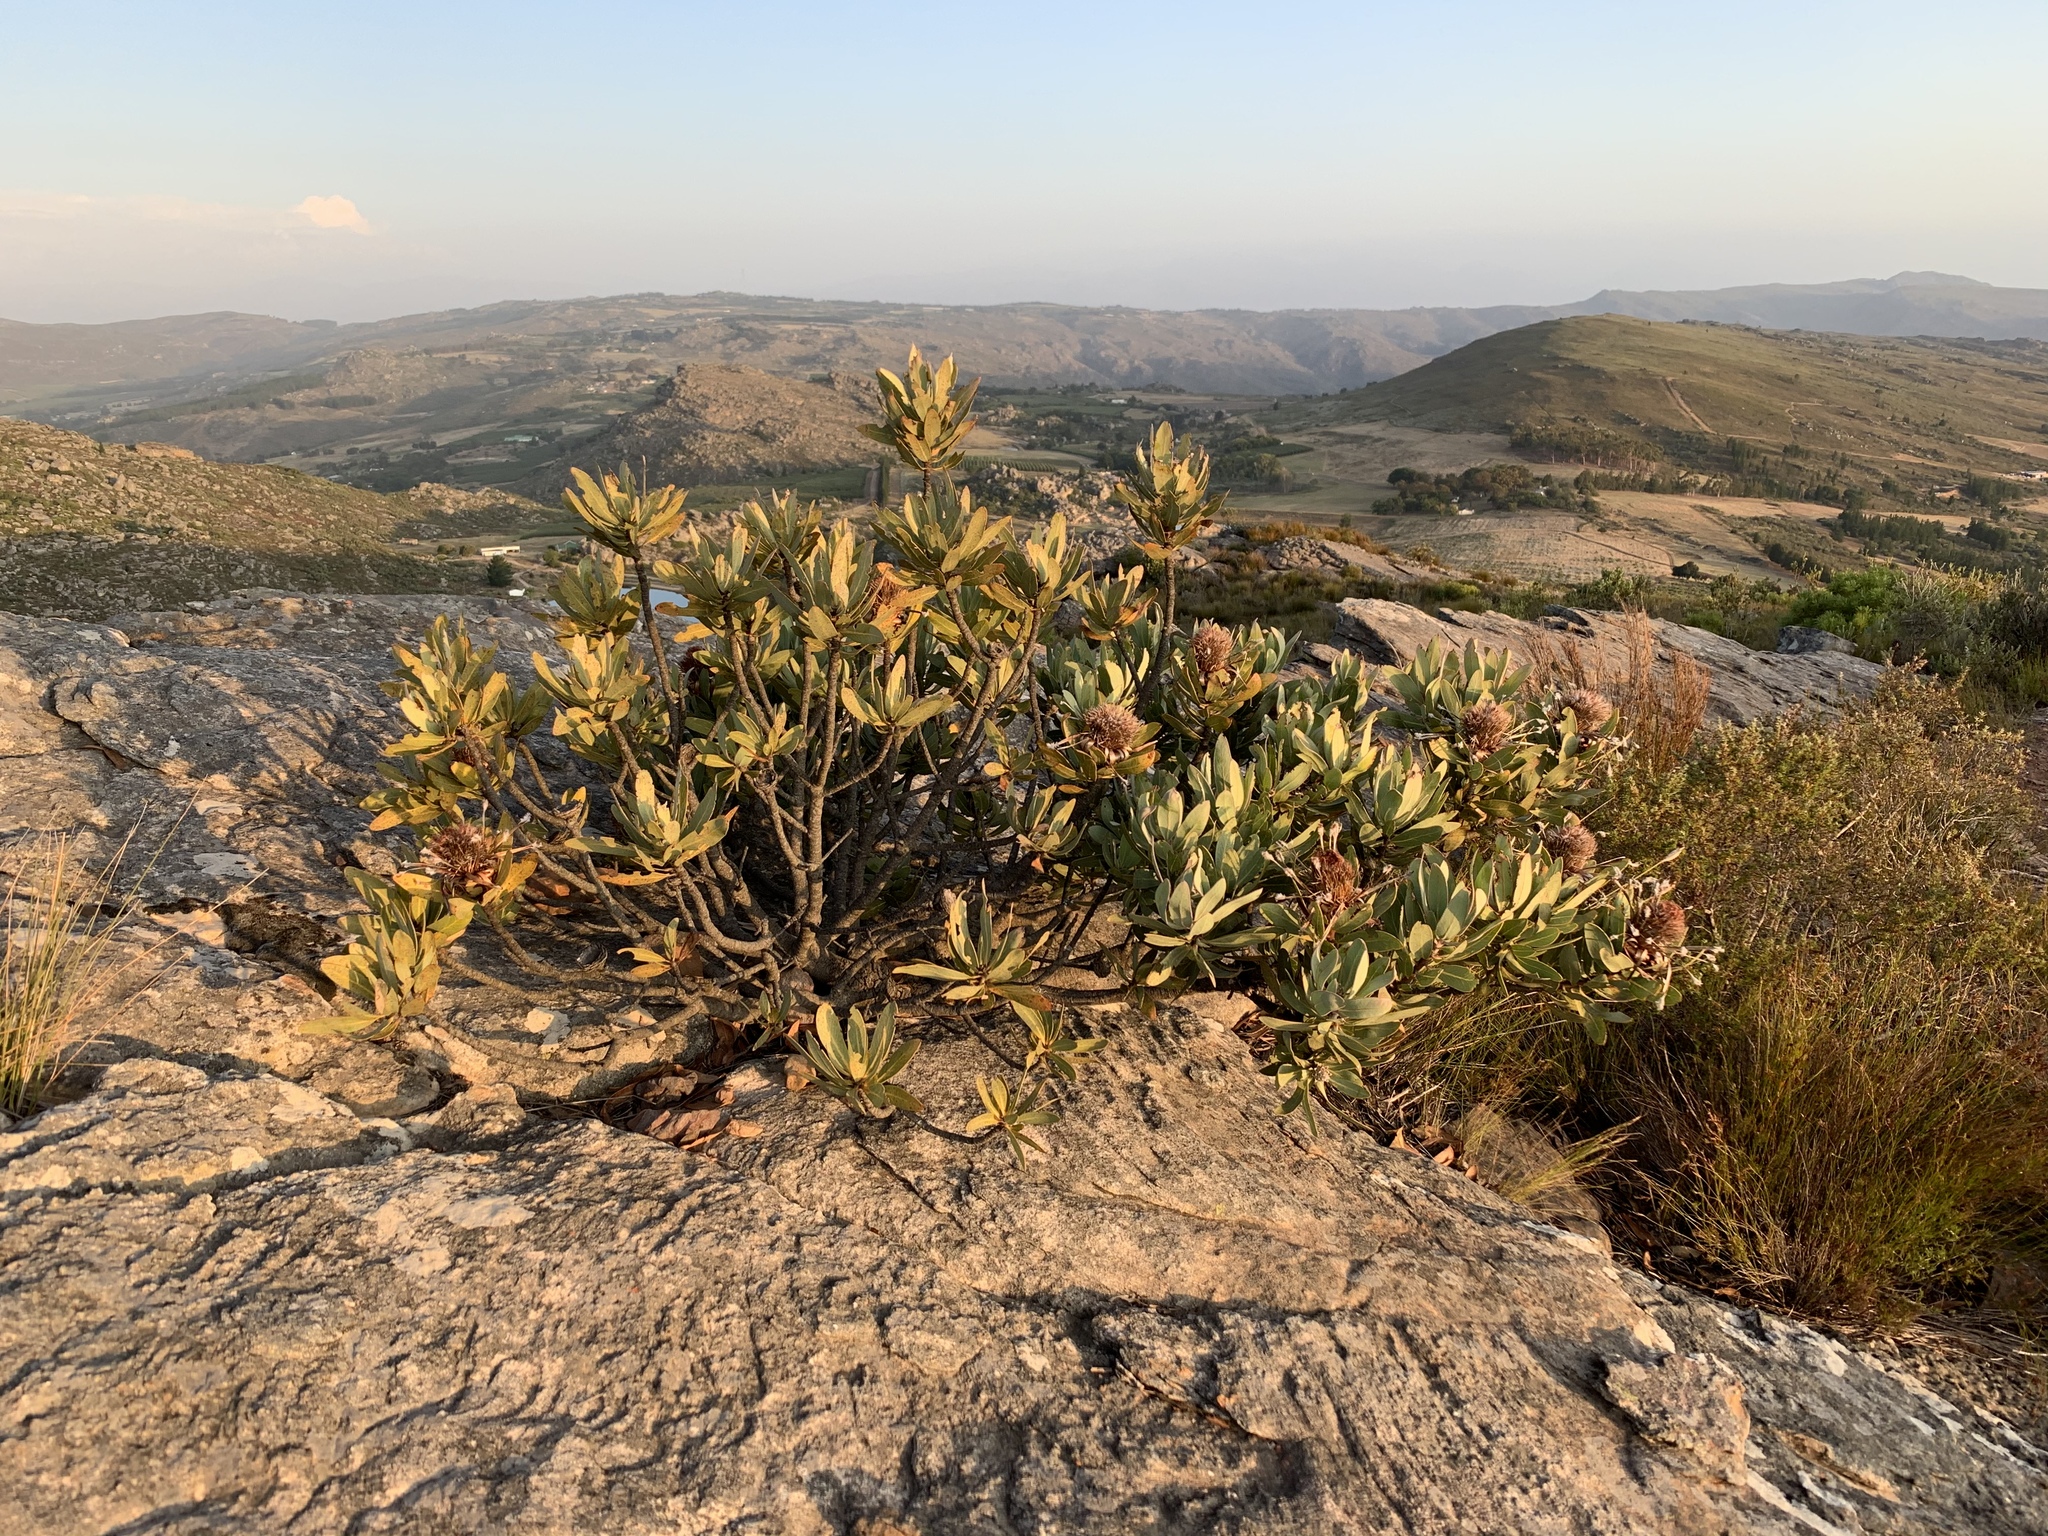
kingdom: Plantae
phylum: Tracheophyta
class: Magnoliopsida
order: Proteales
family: Proteaceae
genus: Protea
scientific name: Protea laurifolia
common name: Grey-leaf sugarbsh
